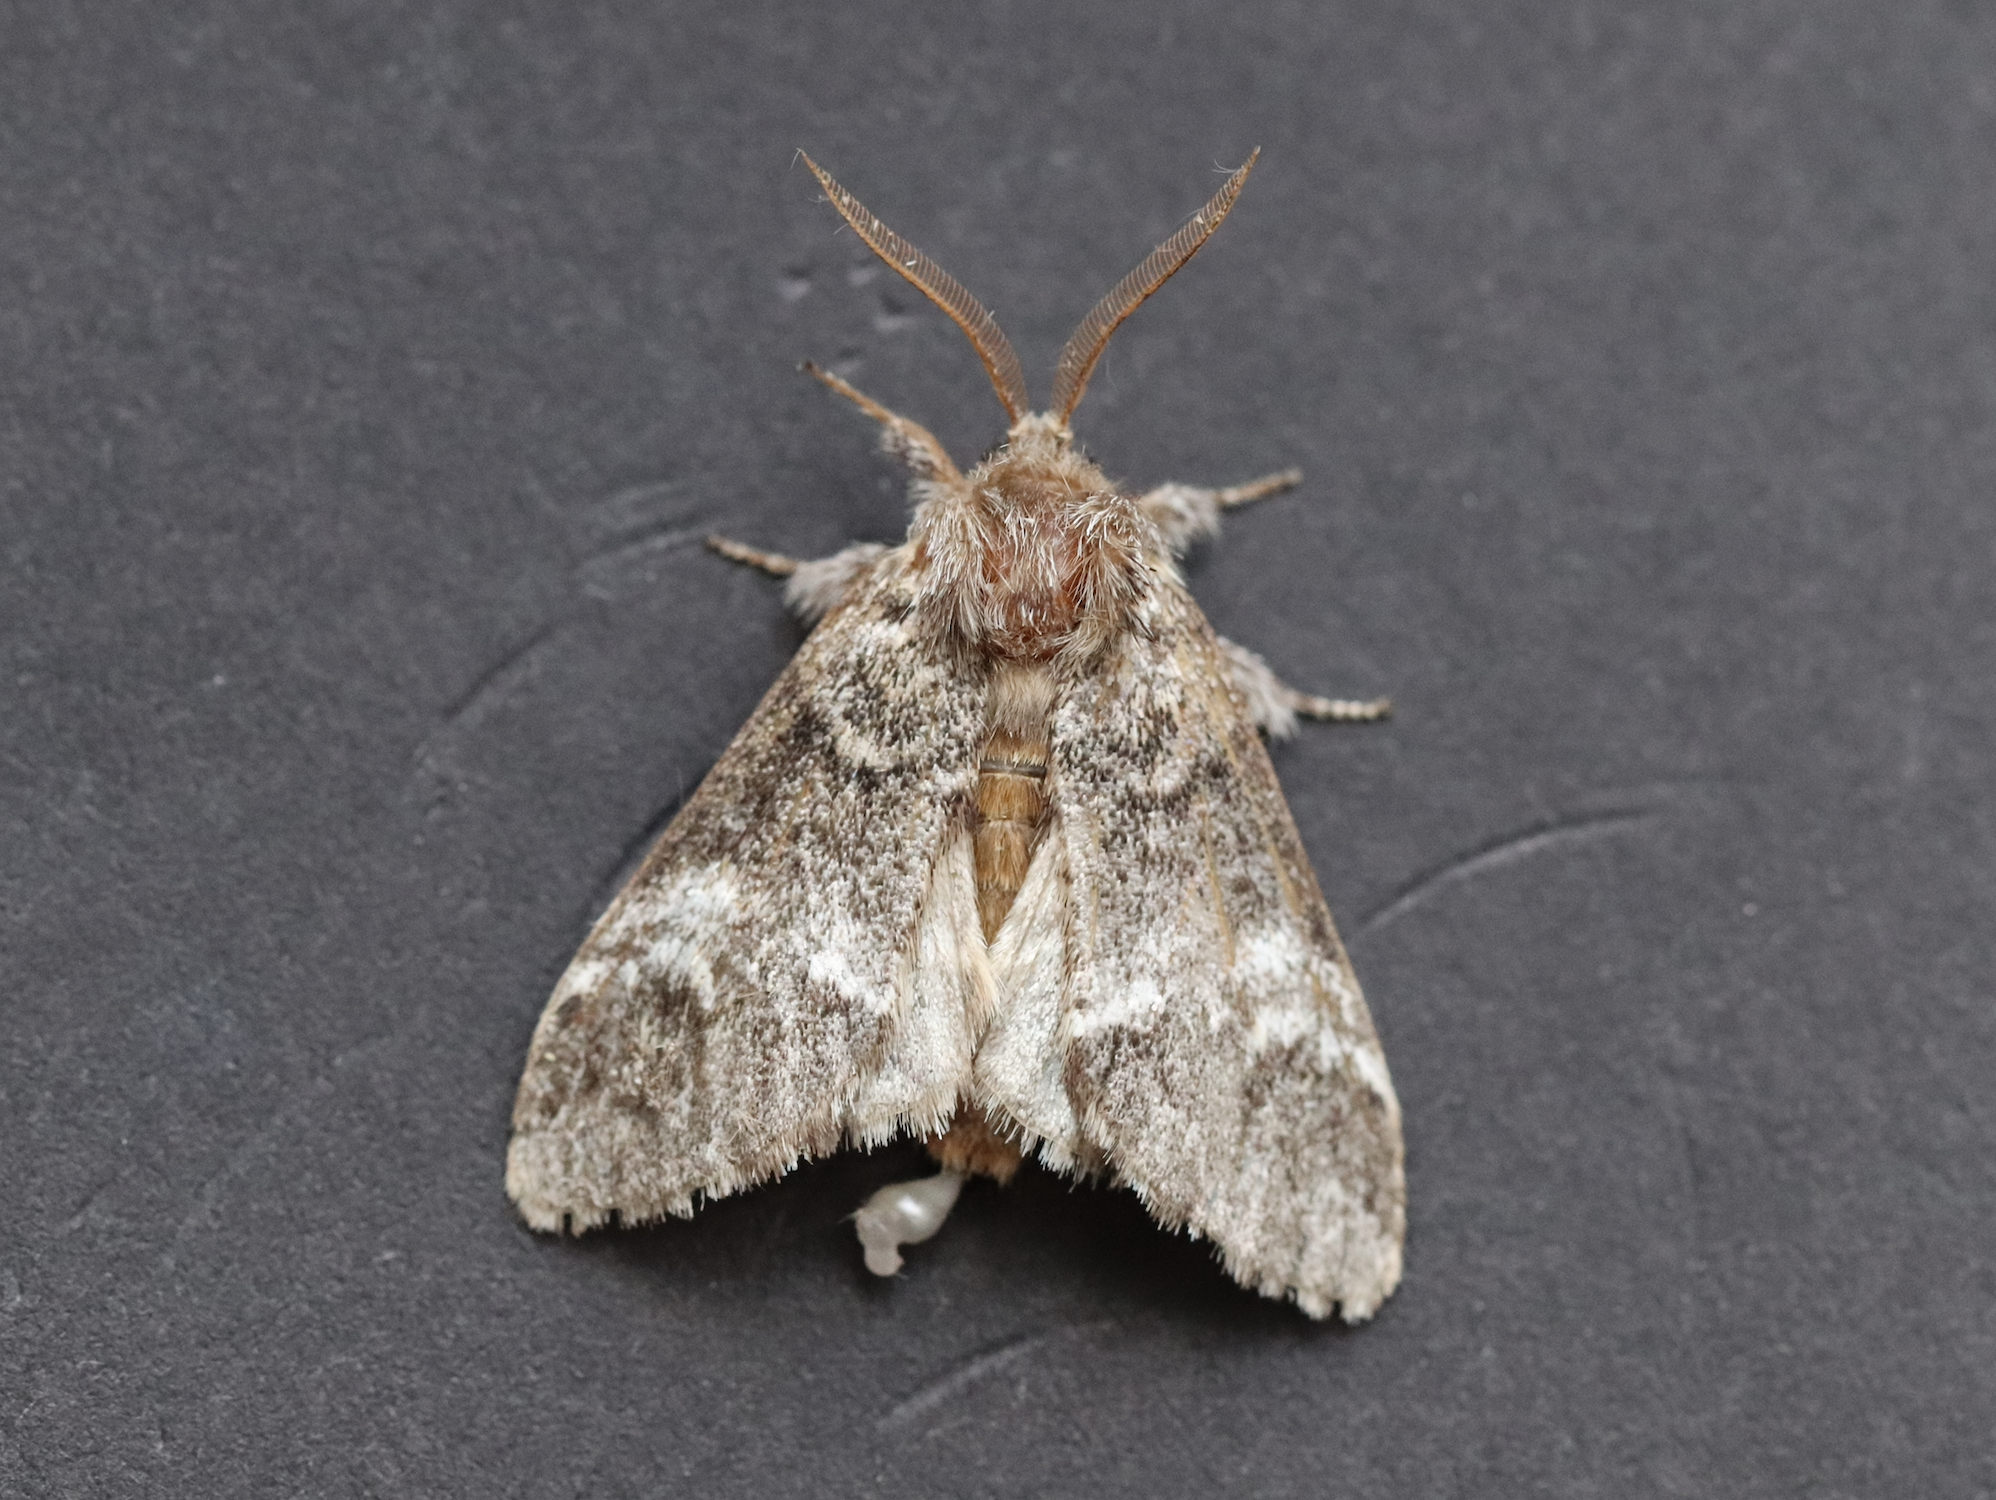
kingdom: Animalia
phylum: Arthropoda
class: Insecta
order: Lepidoptera
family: Notodontidae
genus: Drymonia
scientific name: Drymonia dodonaea
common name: Marbled brown
